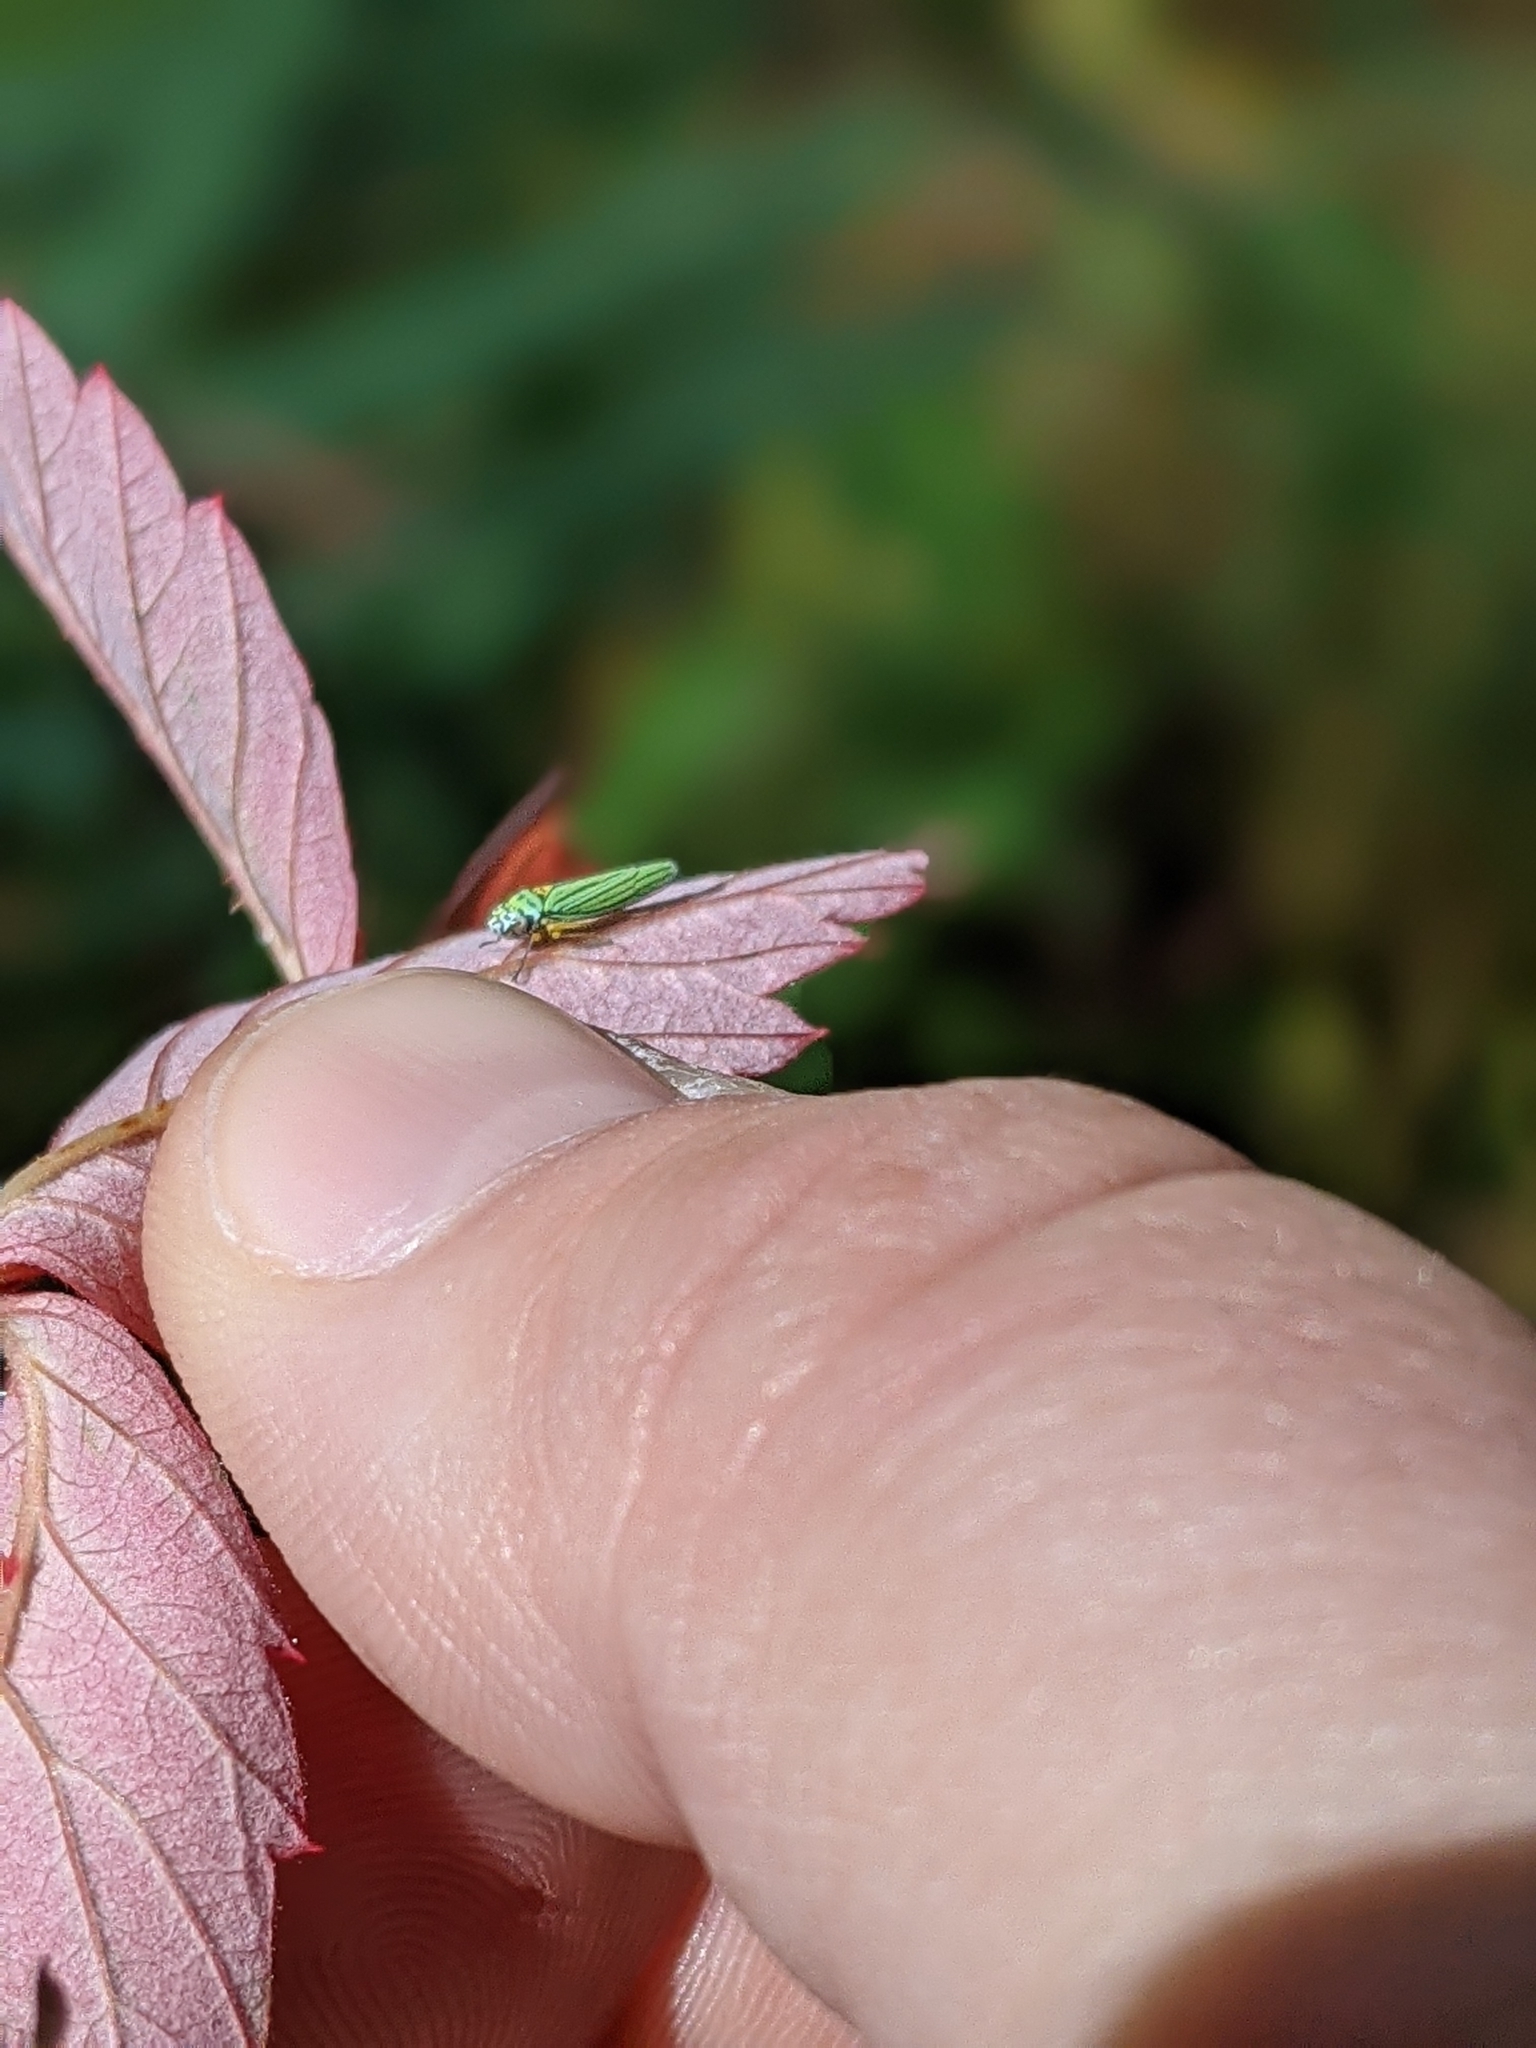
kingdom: Animalia
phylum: Arthropoda
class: Insecta
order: Hemiptera
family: Cicadellidae
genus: Graphocephala
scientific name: Graphocephala atropunctata
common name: Blue-green sharpshooter
